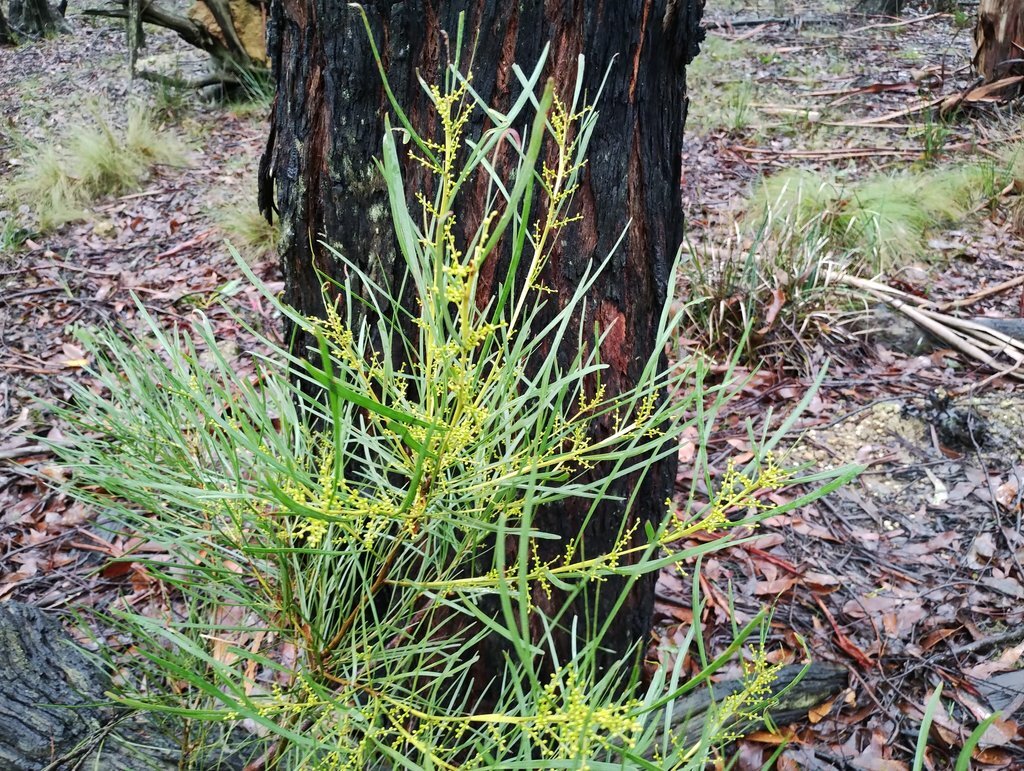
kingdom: Plantae
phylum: Tracheophyta
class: Magnoliopsida
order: Fabales
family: Fabaceae
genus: Acacia
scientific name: Acacia mucronata
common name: Variable sallow wattle
